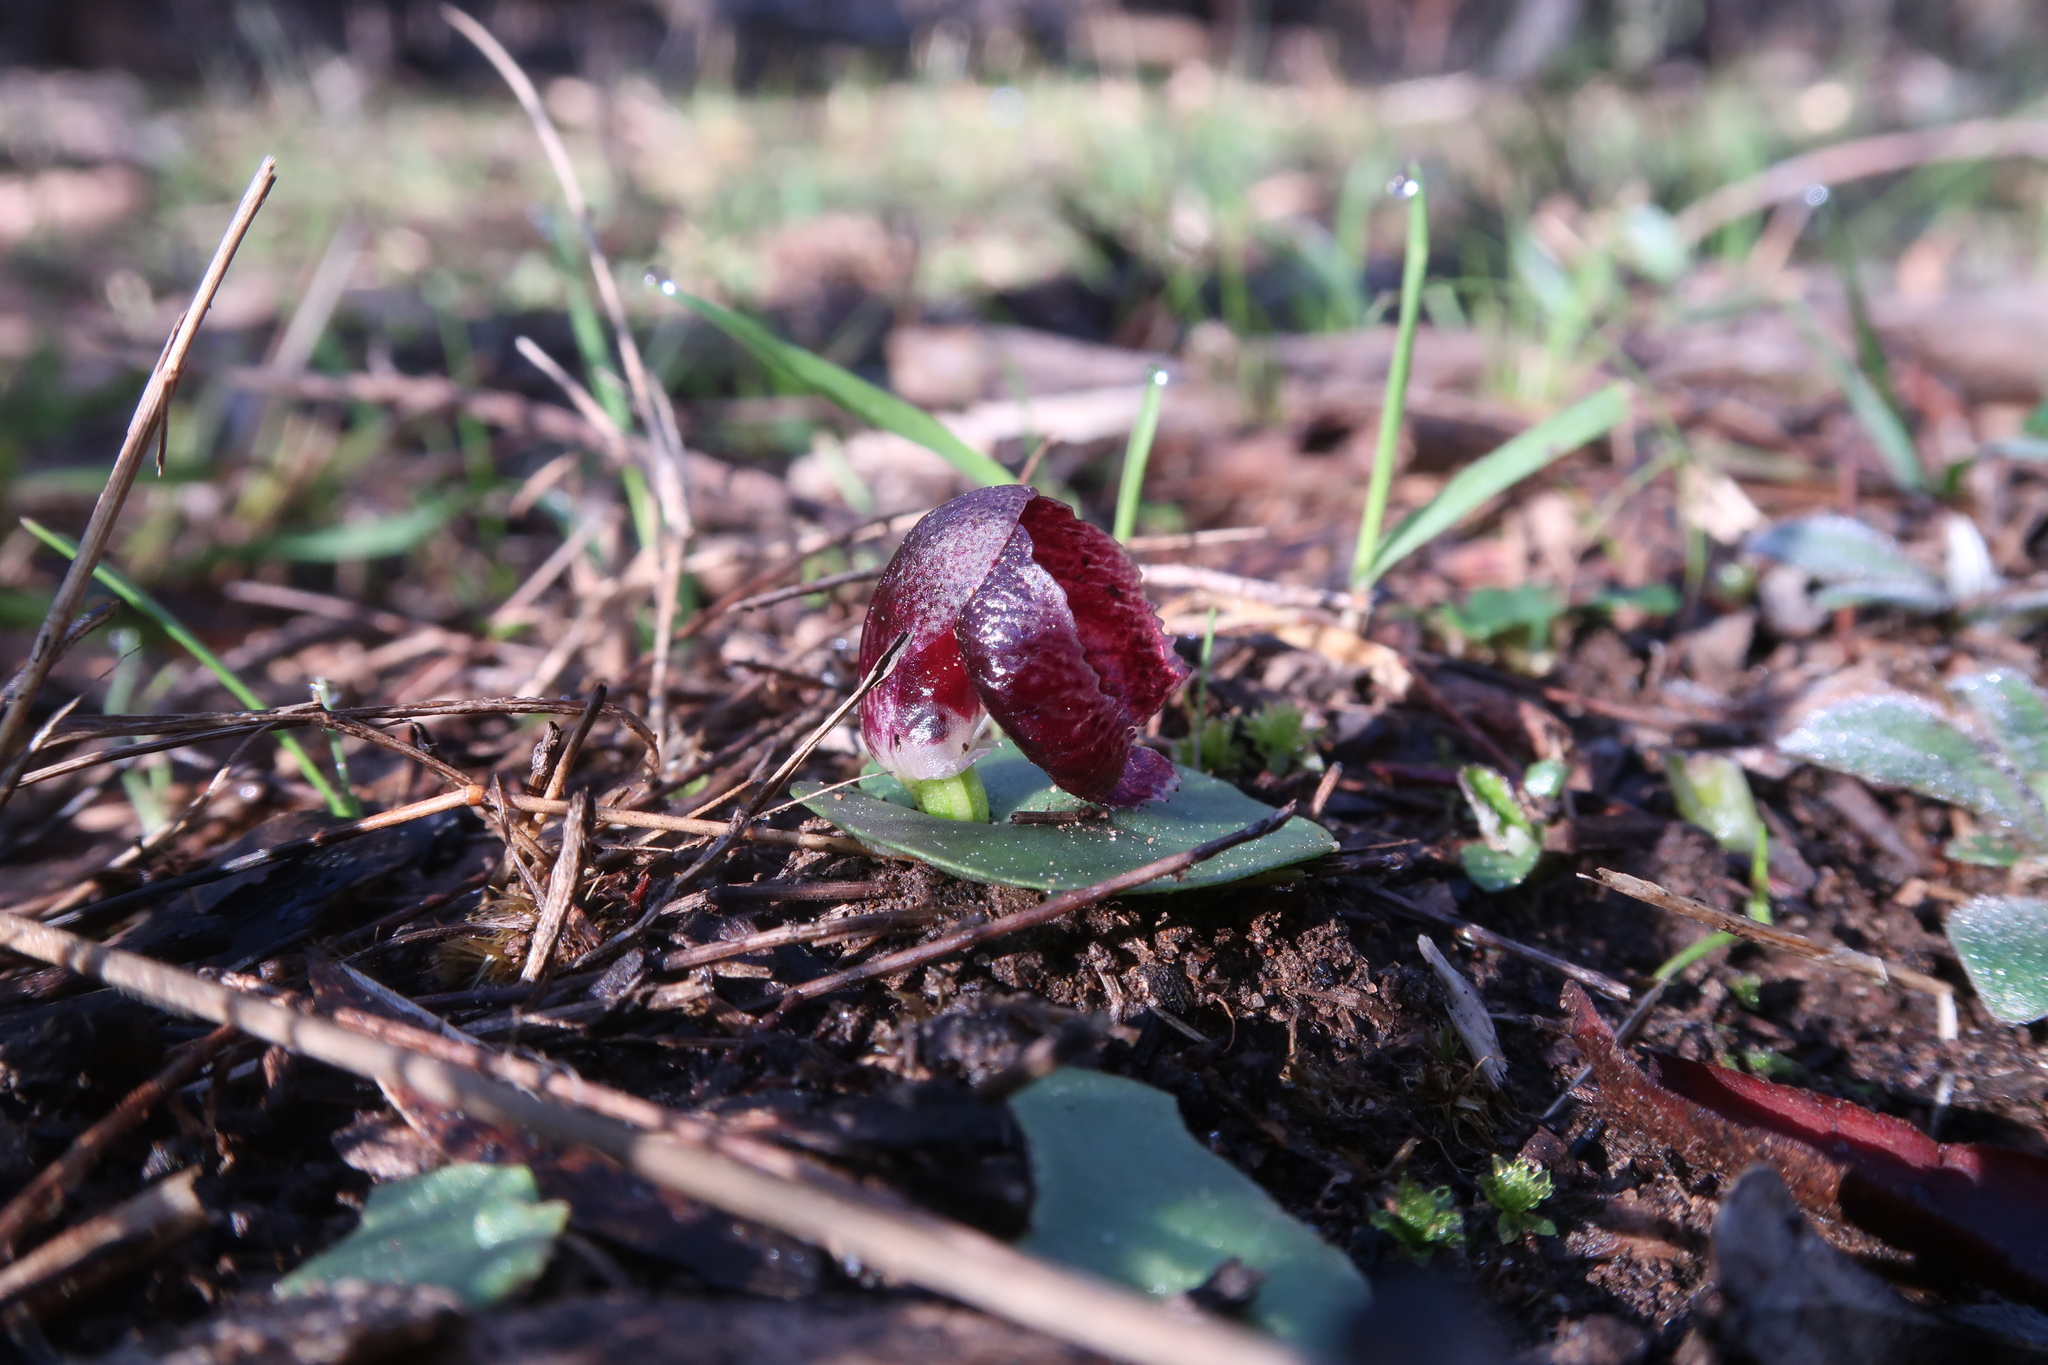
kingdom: Plantae
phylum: Tracheophyta
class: Liliopsida
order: Asparagales
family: Orchidaceae
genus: Corybas
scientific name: Corybas incurvus
